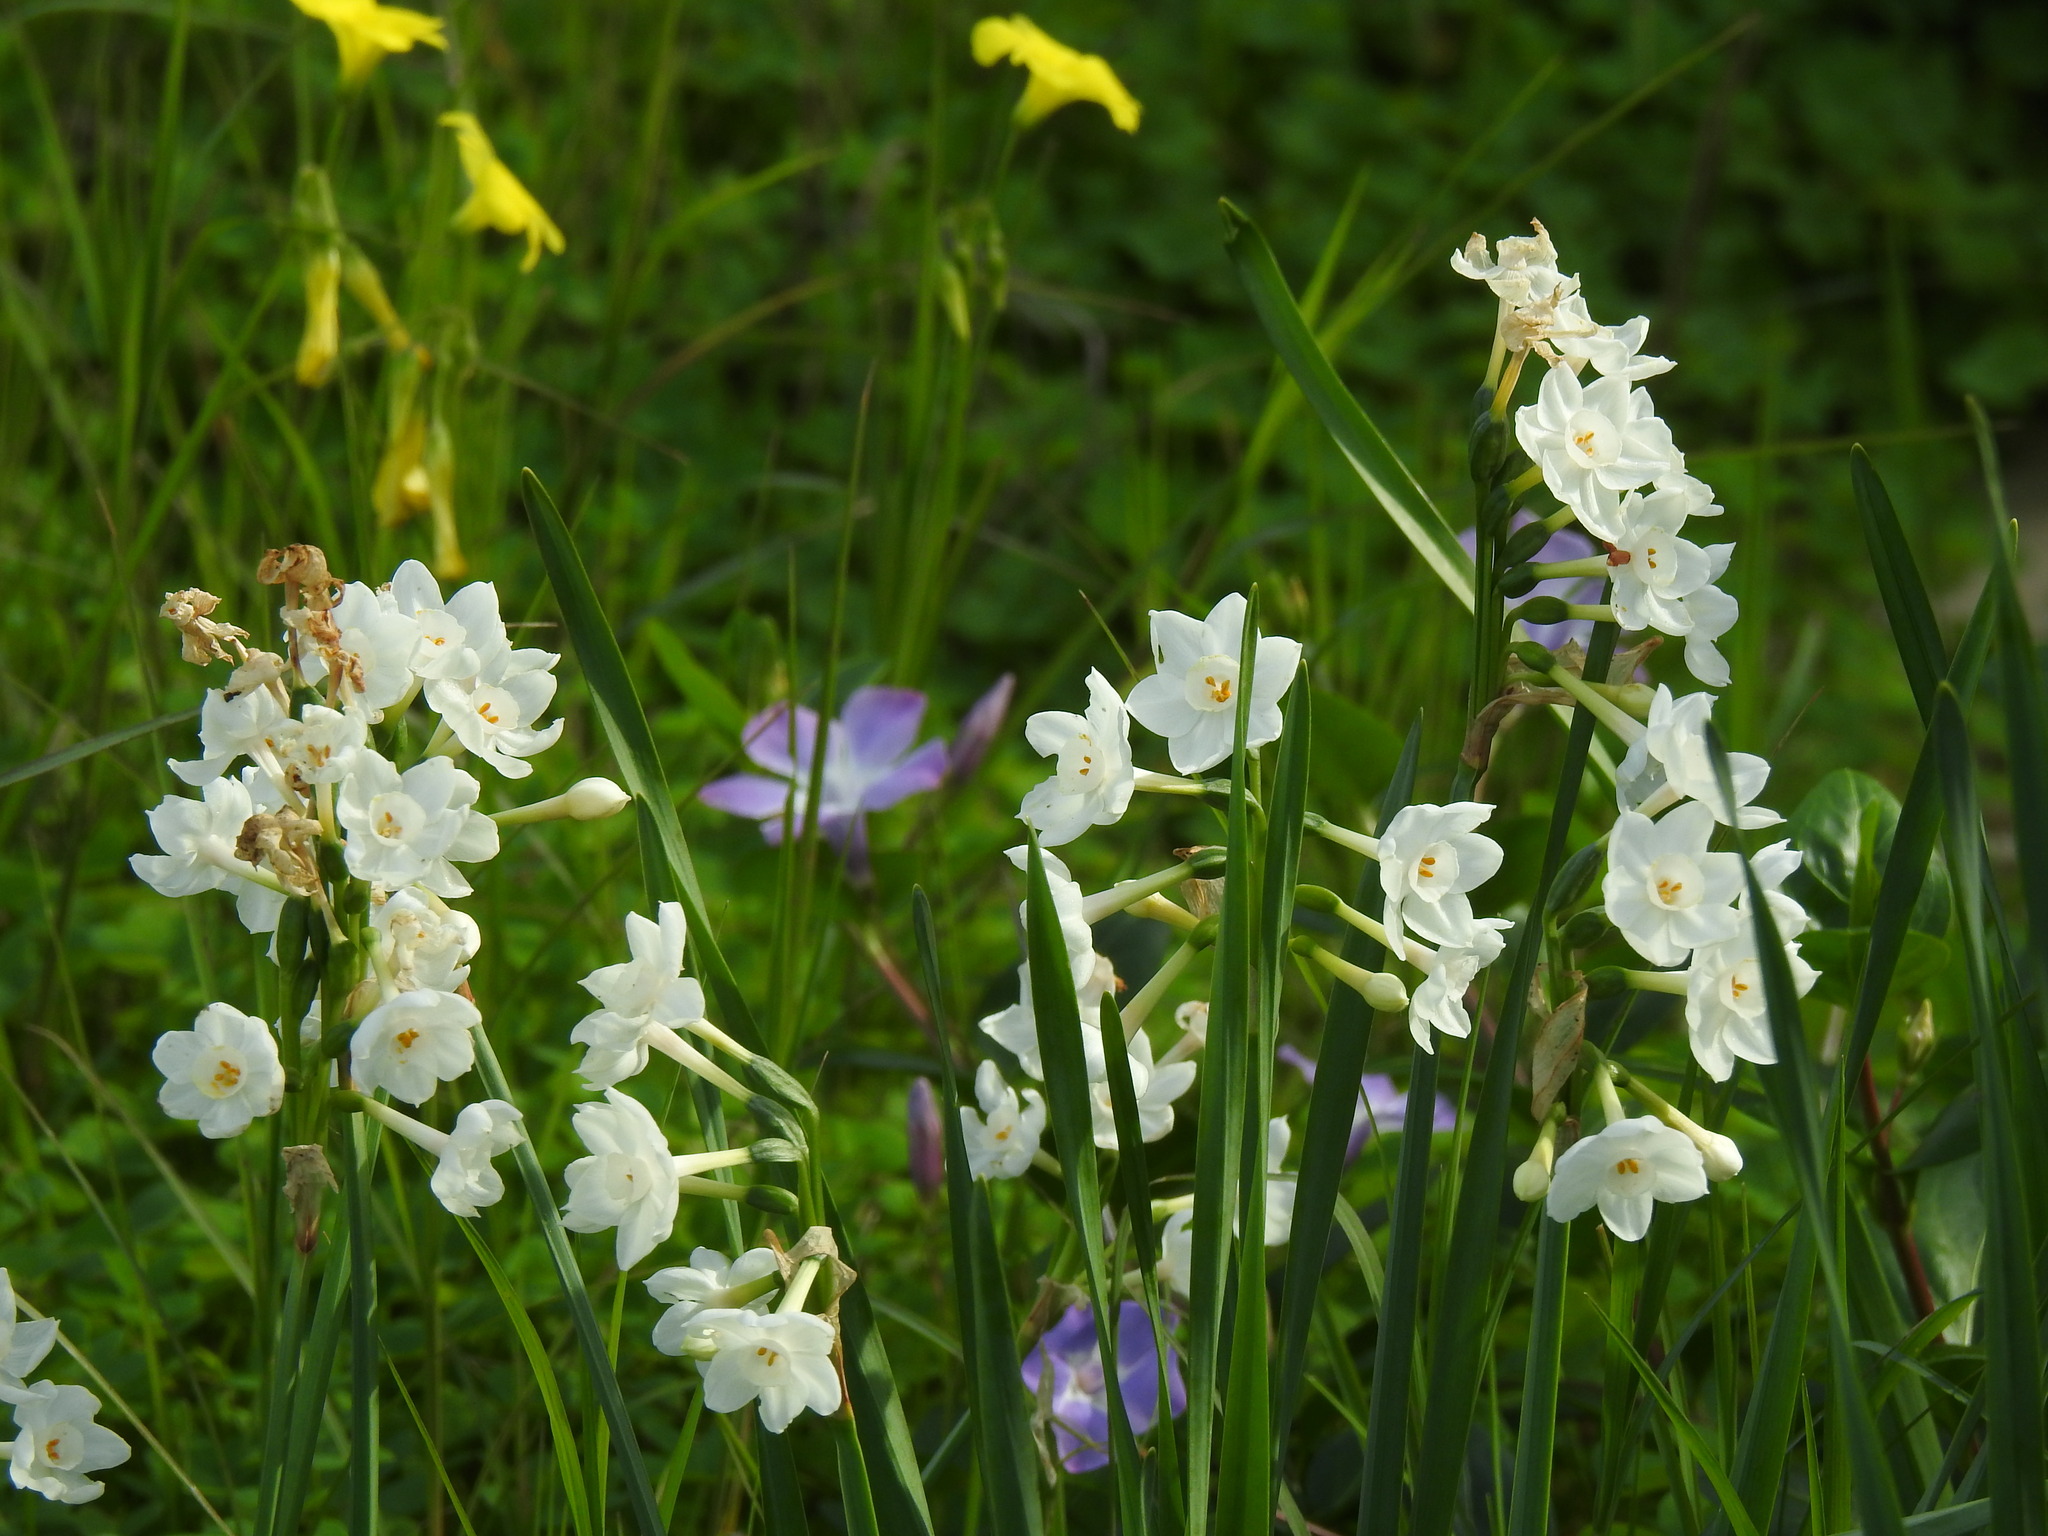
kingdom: Plantae
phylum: Tracheophyta
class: Liliopsida
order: Asparagales
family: Amaryllidaceae
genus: Narcissus
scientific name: Narcissus papyraceus
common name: Paper-white daffodil
